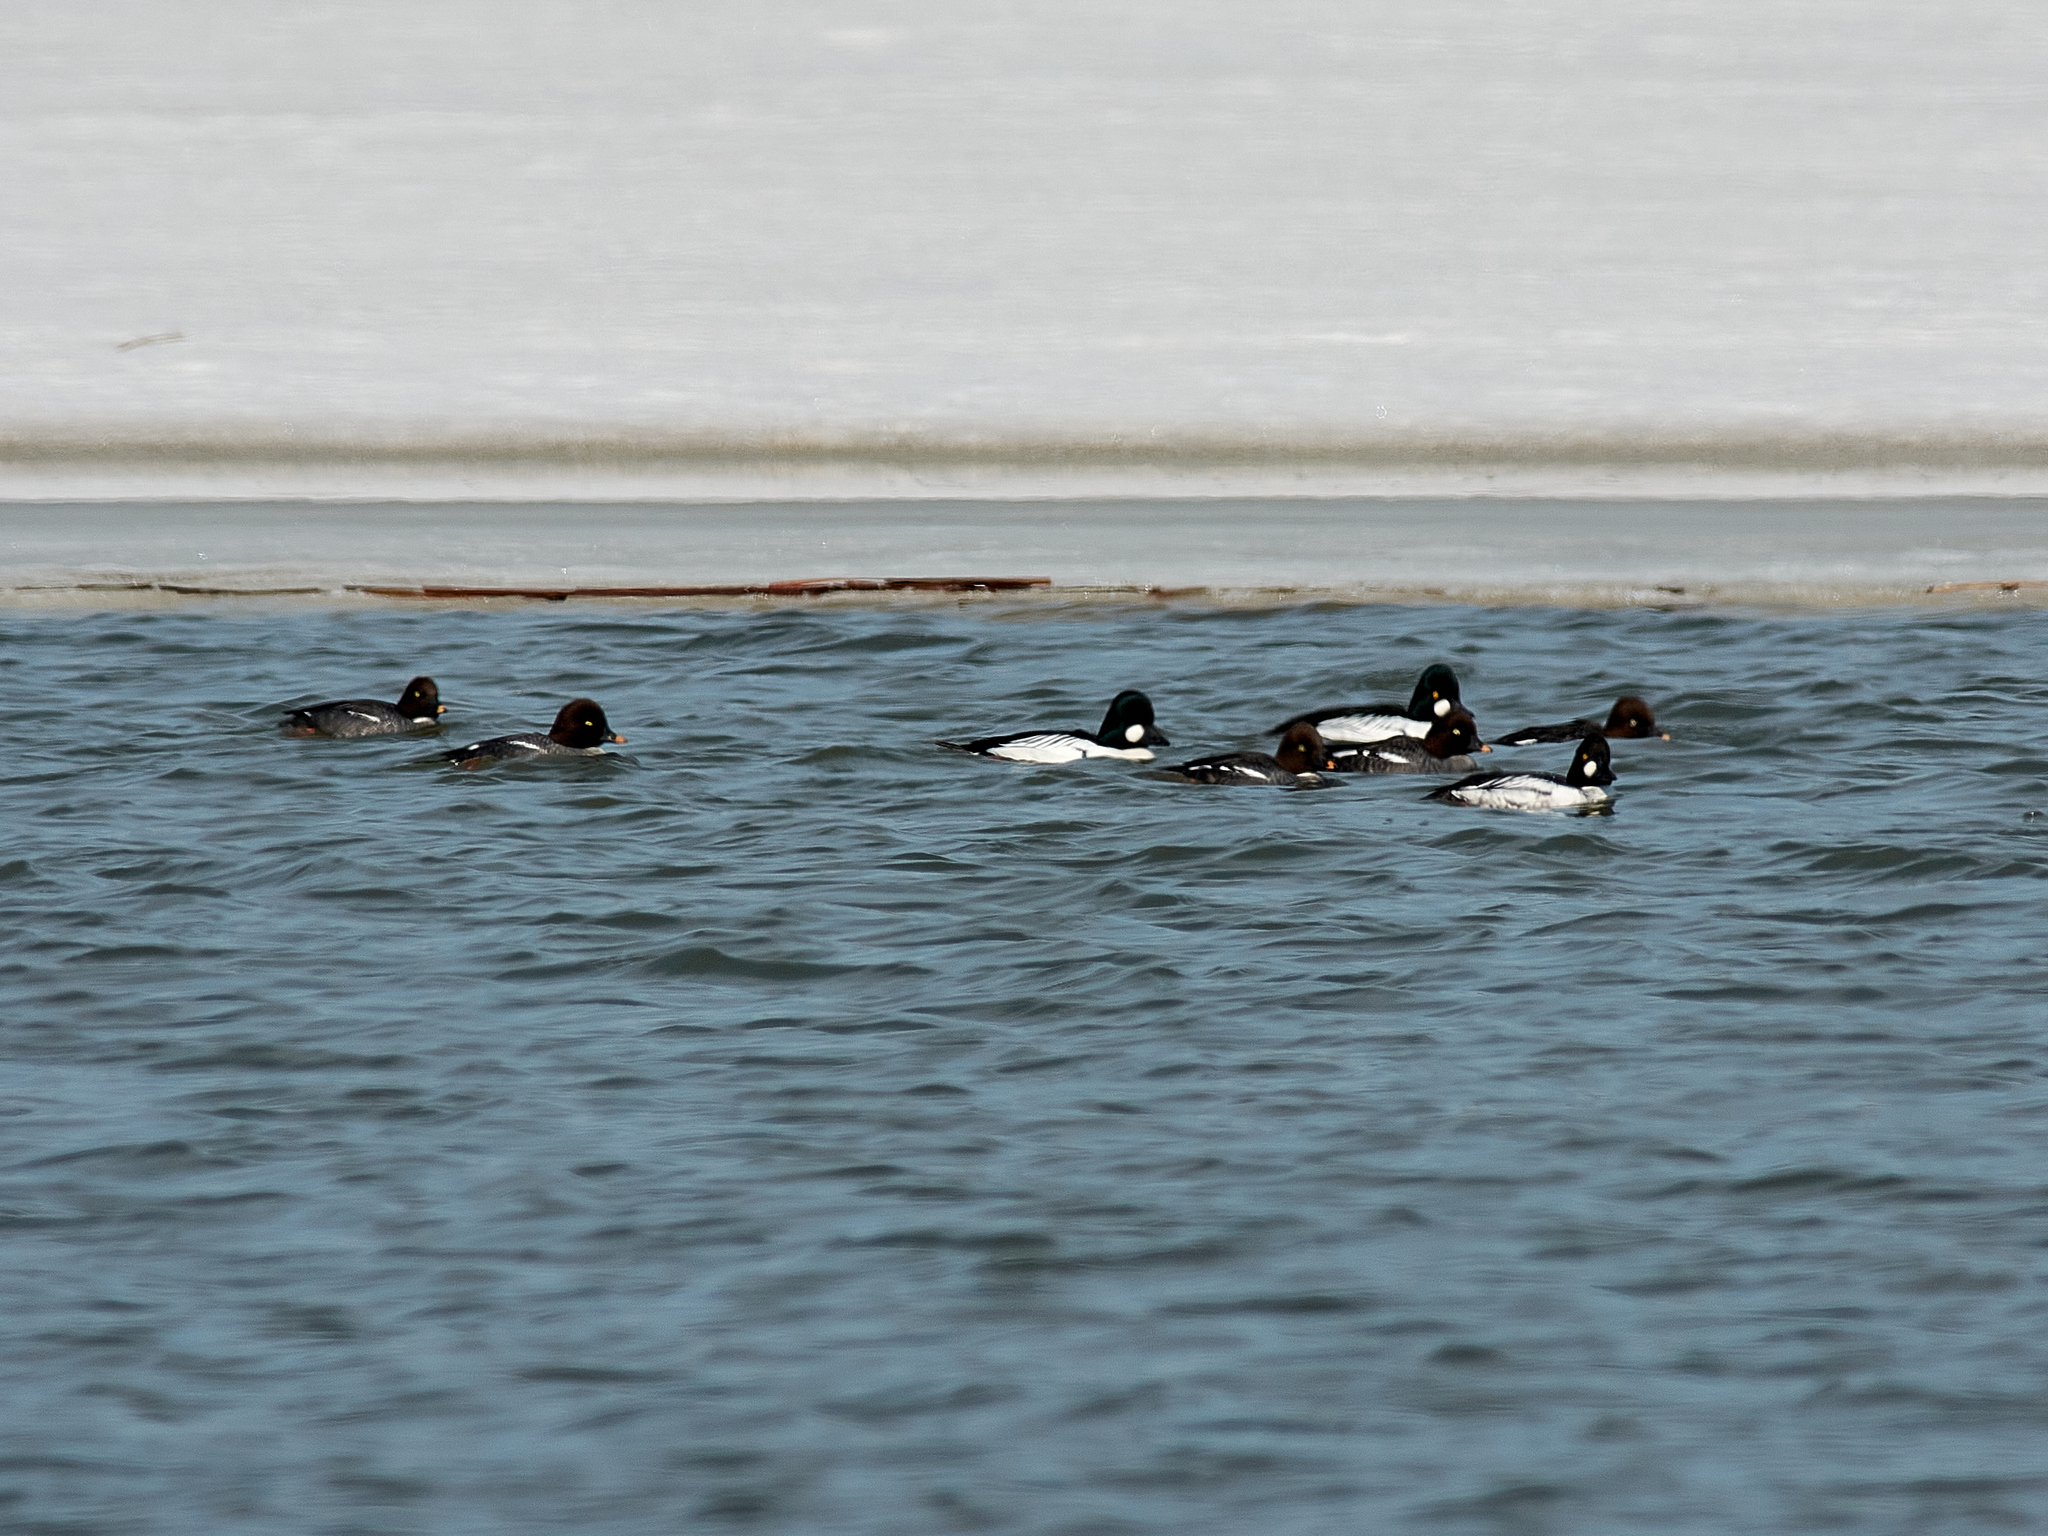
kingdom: Animalia
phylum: Chordata
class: Aves
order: Anseriformes
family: Anatidae
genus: Bucephala
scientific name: Bucephala clangula
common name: Common goldeneye
